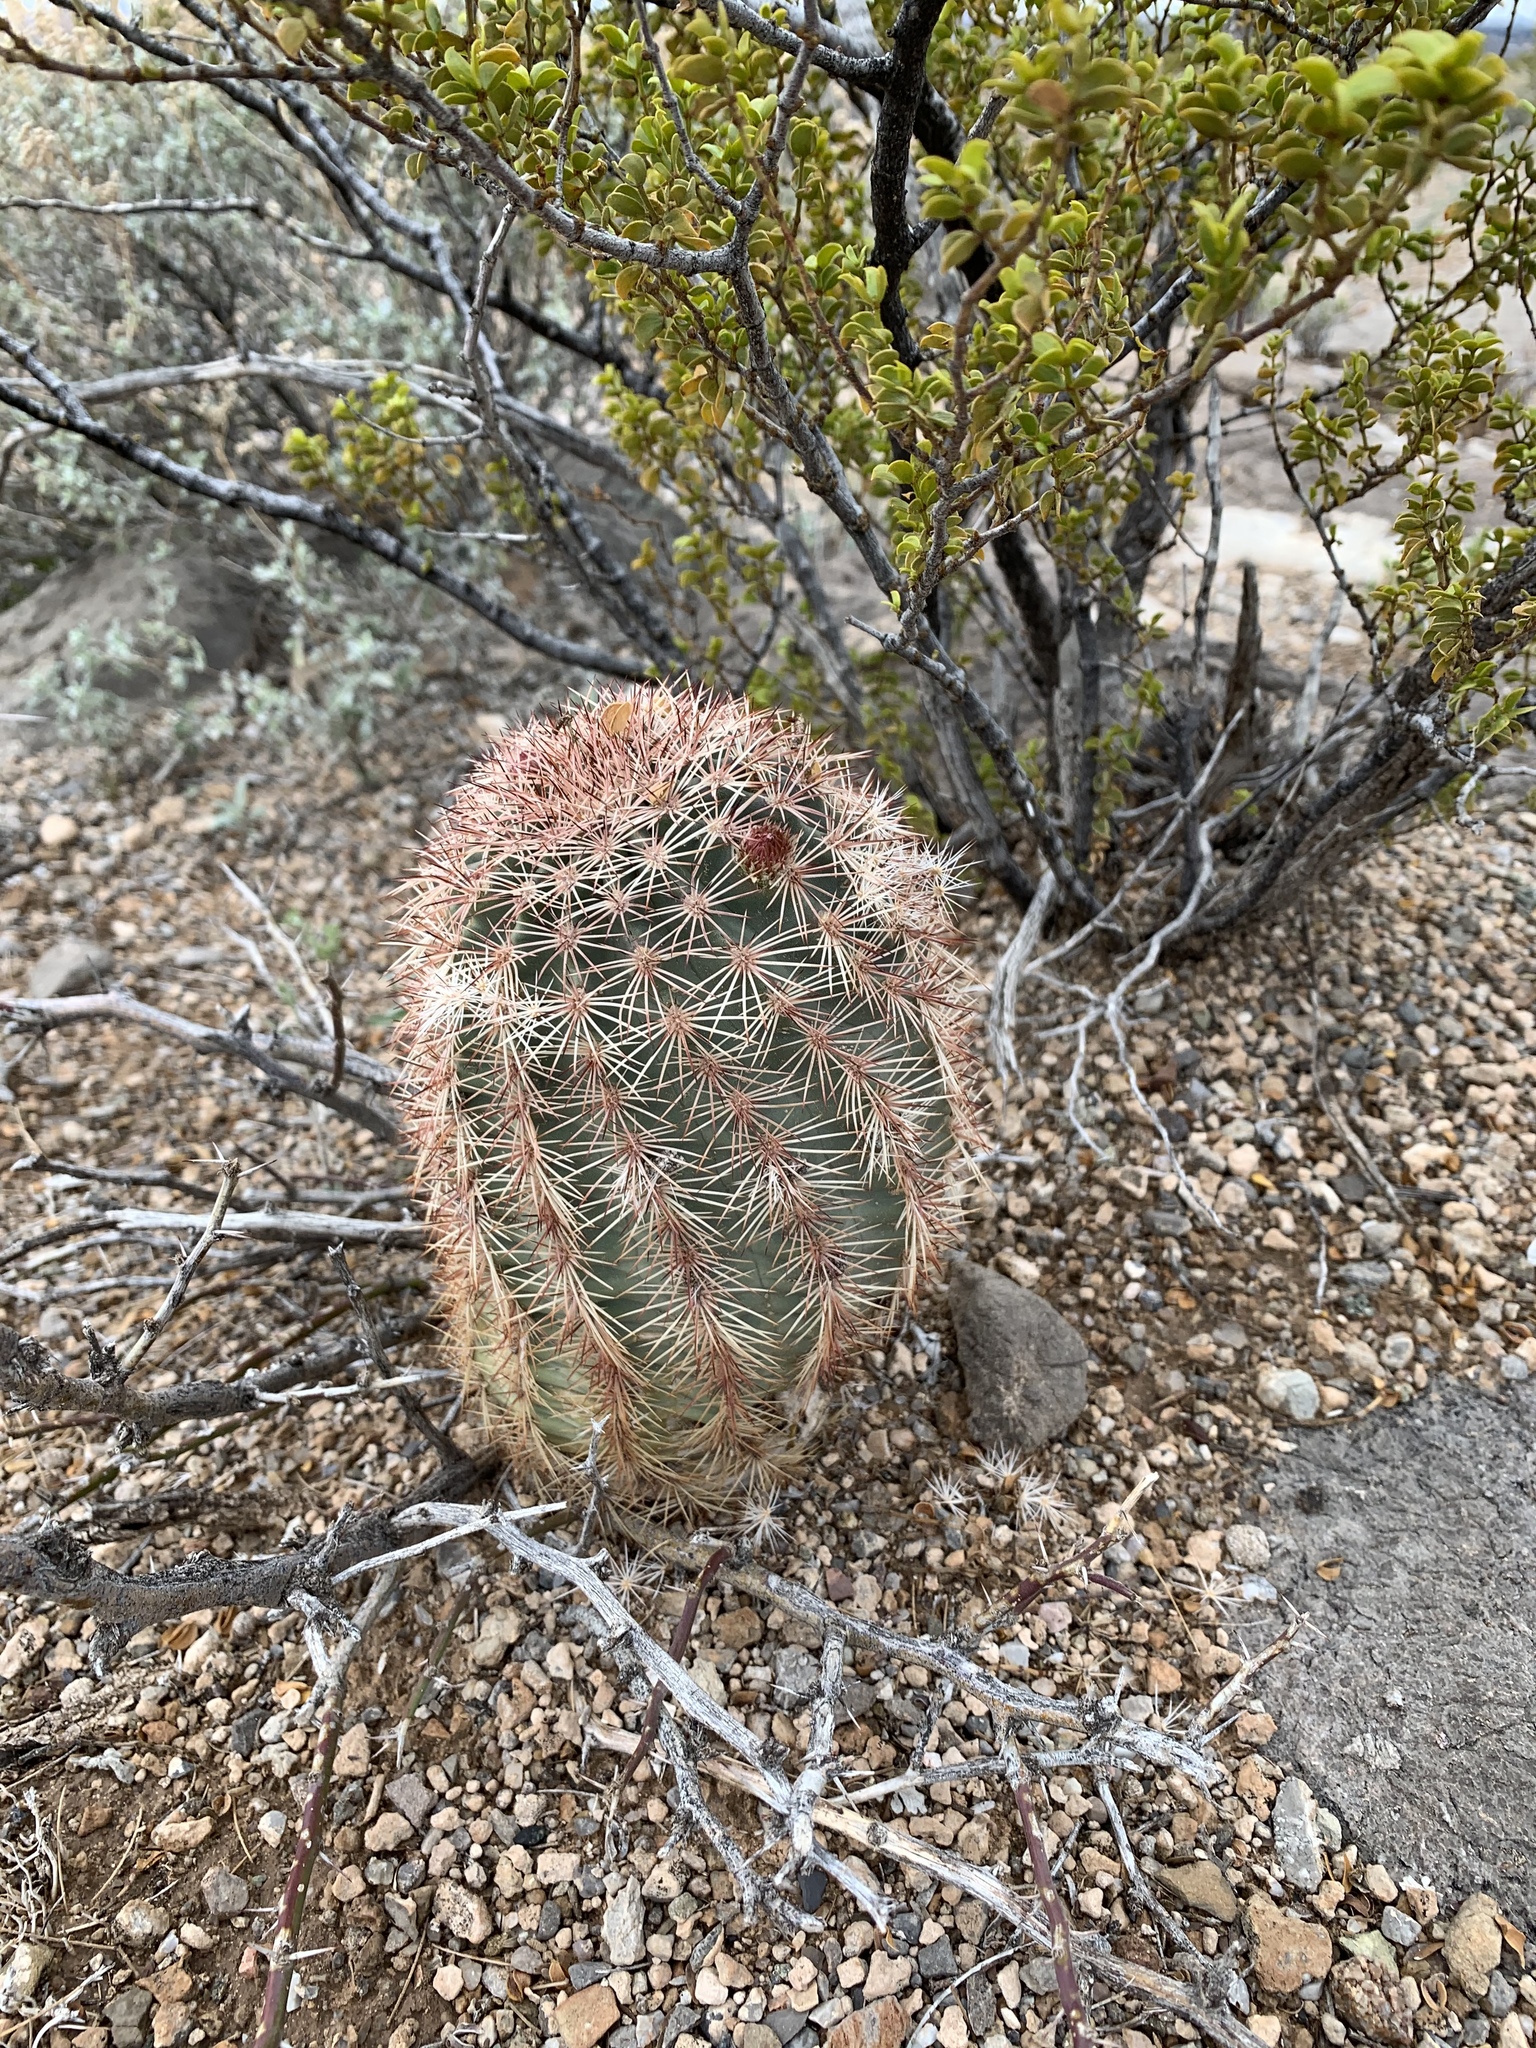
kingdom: Plantae
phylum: Tracheophyta
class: Magnoliopsida
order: Caryophyllales
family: Cactaceae
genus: Echinocereus
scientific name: Echinocereus dasyacanthus
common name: Spiny hedgehog cactus
